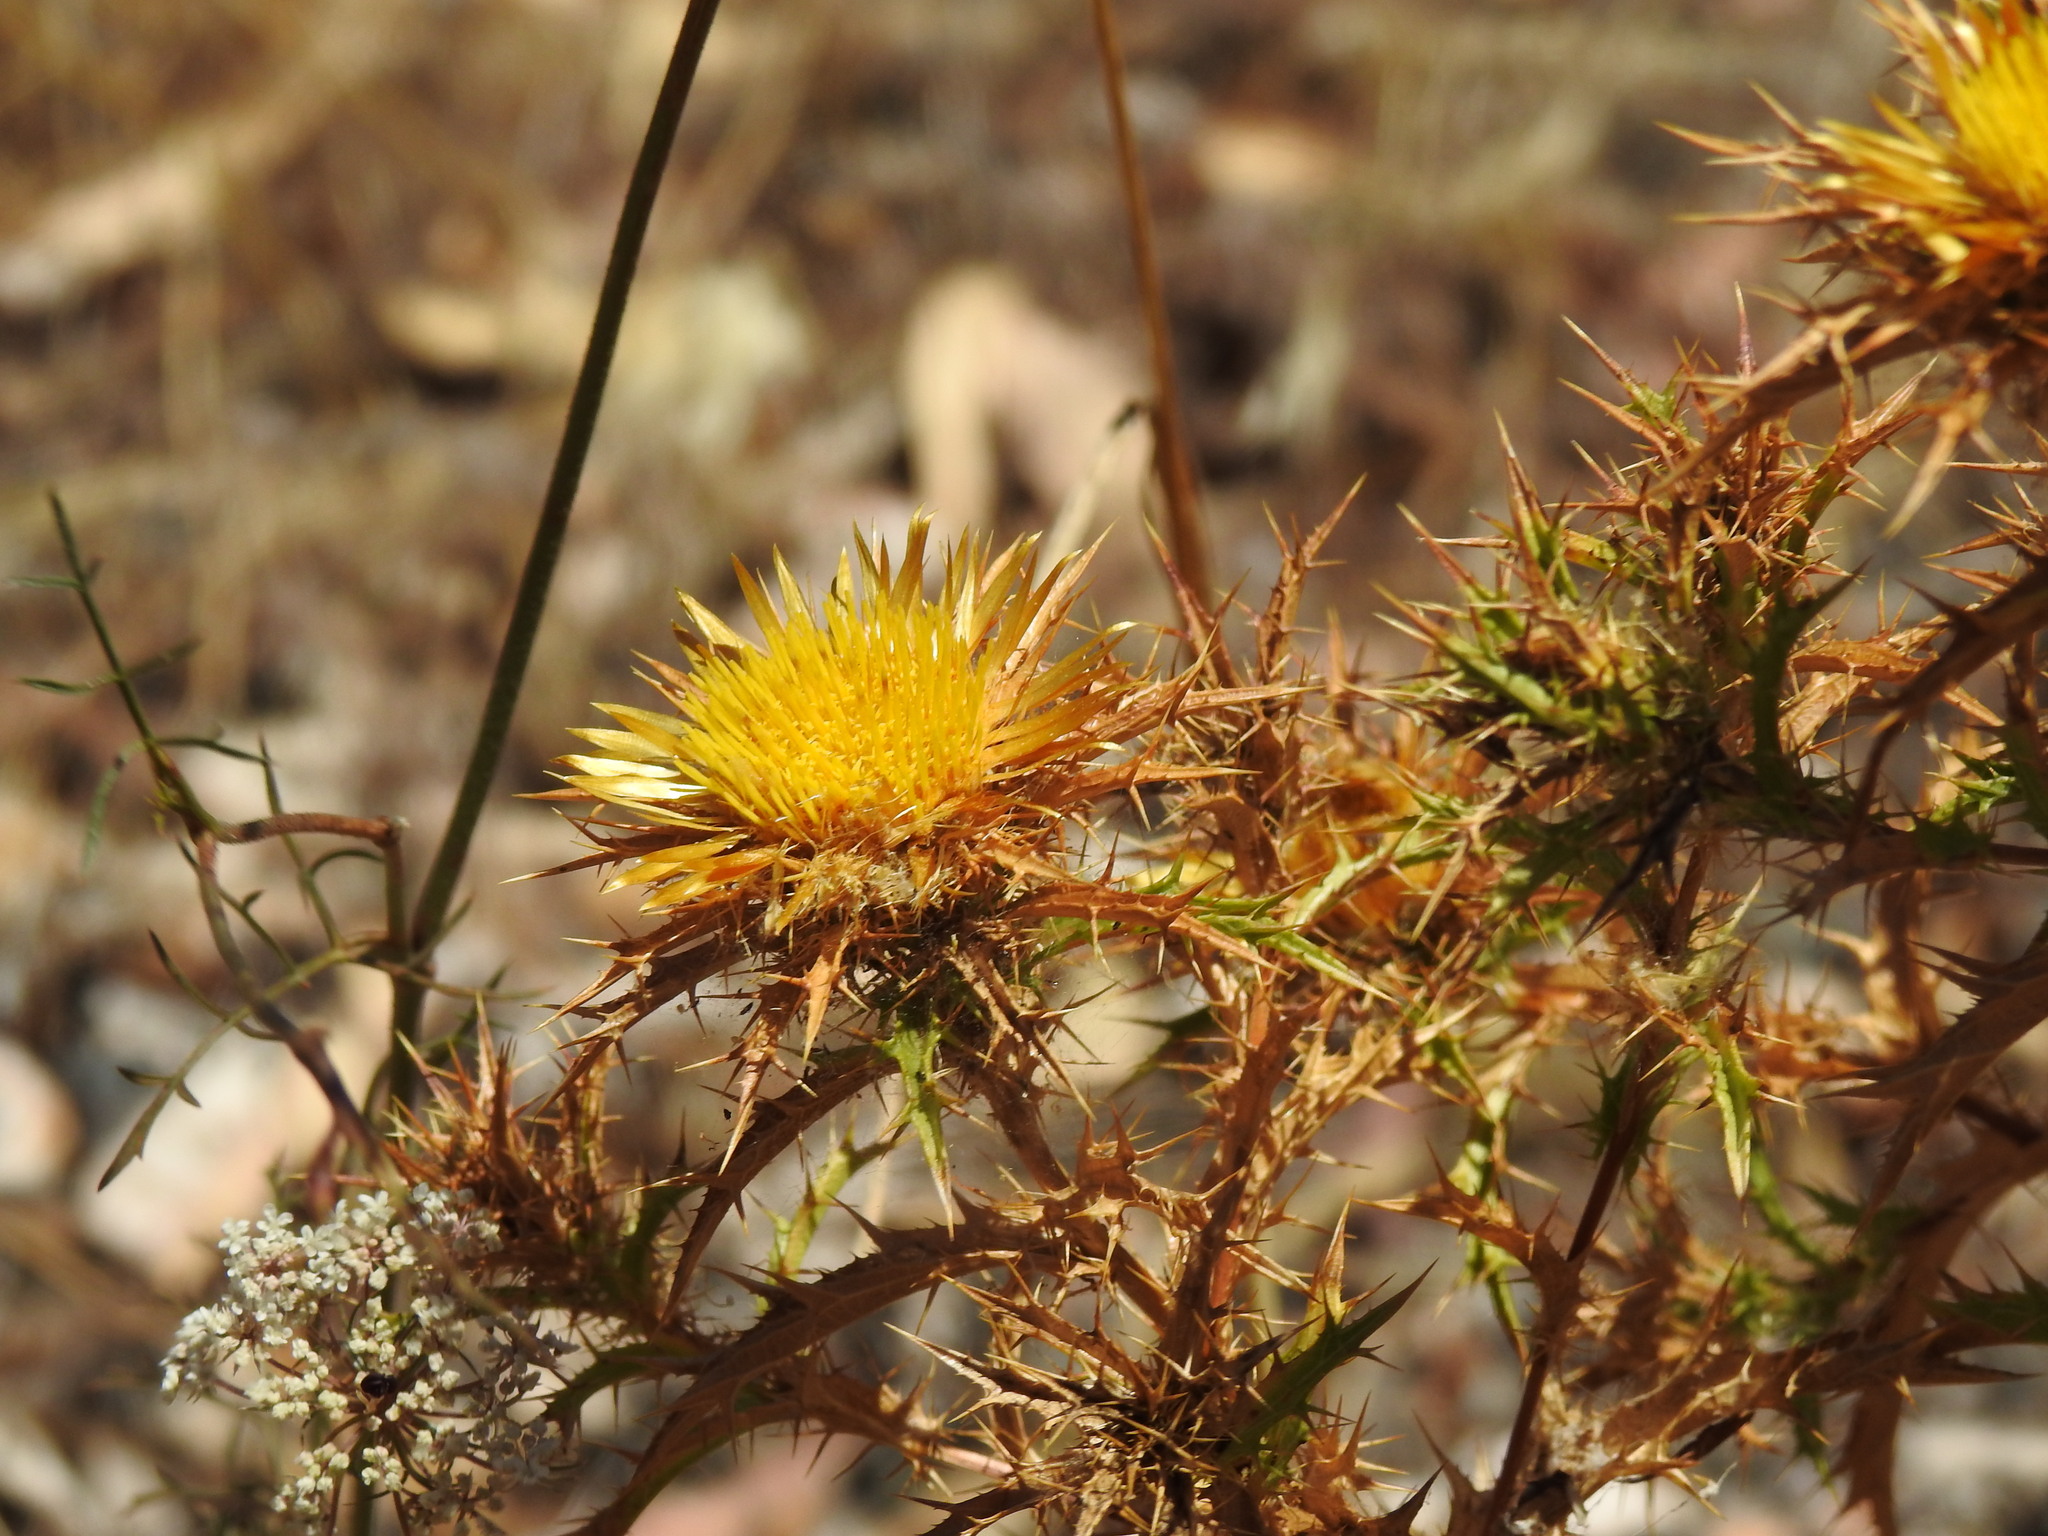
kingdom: Plantae
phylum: Tracheophyta
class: Magnoliopsida
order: Asterales
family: Asteraceae
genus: Carlina
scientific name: Carlina hispanica
